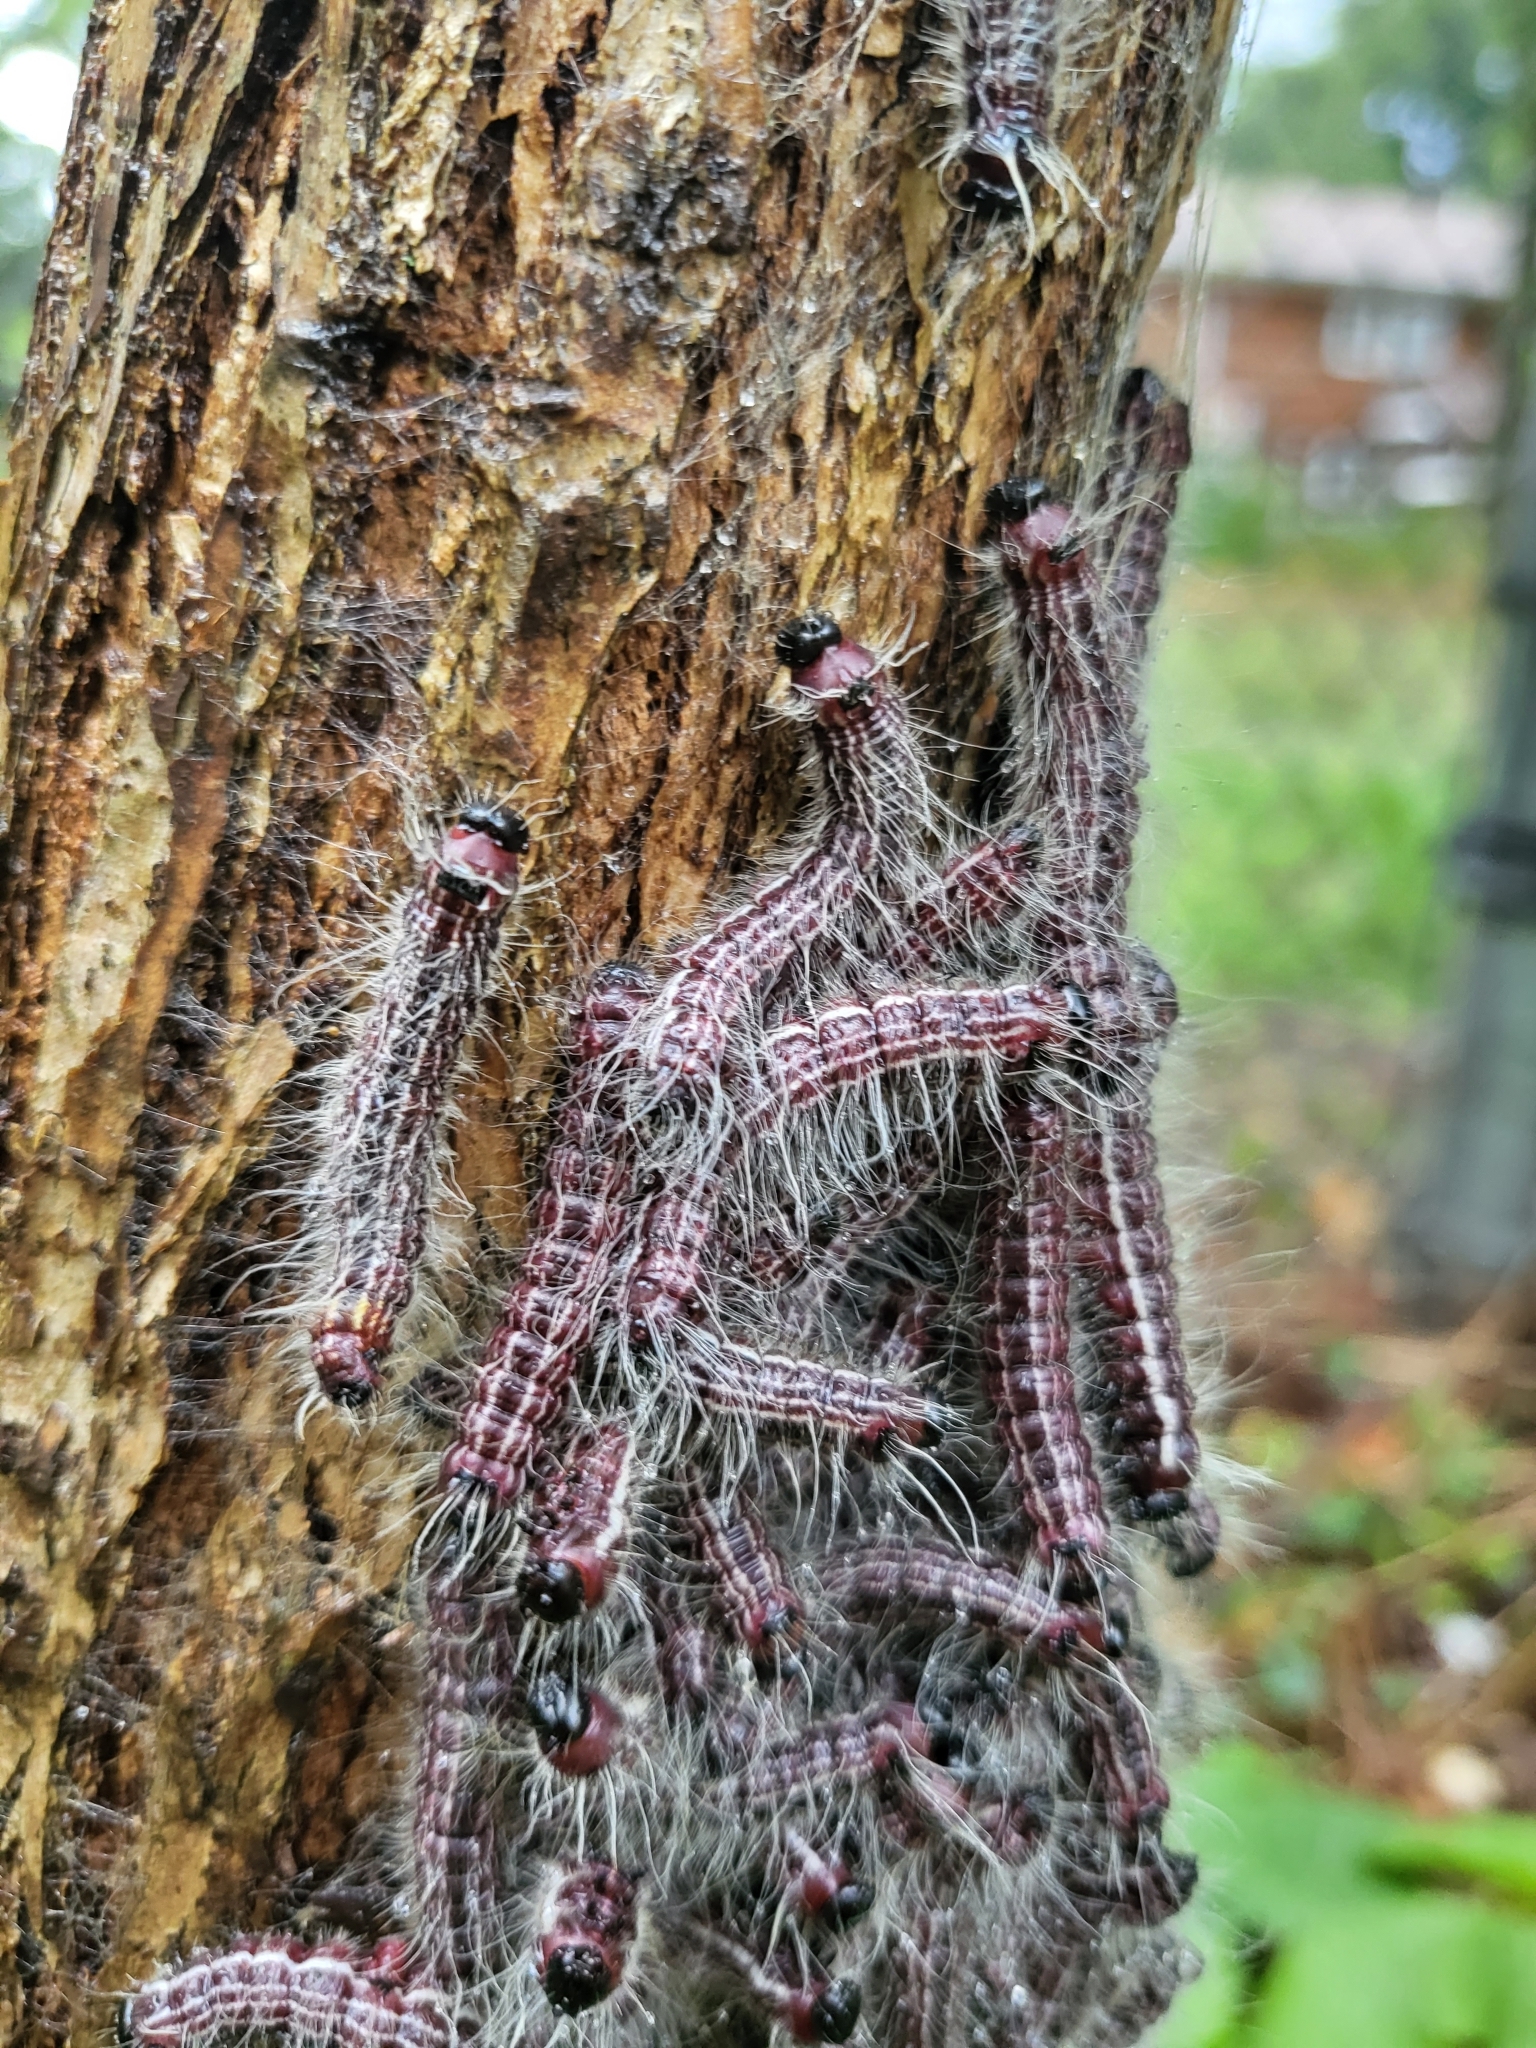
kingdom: Animalia
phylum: Arthropoda
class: Insecta
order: Lepidoptera
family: Notodontidae
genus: Datana
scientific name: Datana integerrima
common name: Walnut caterpillar
